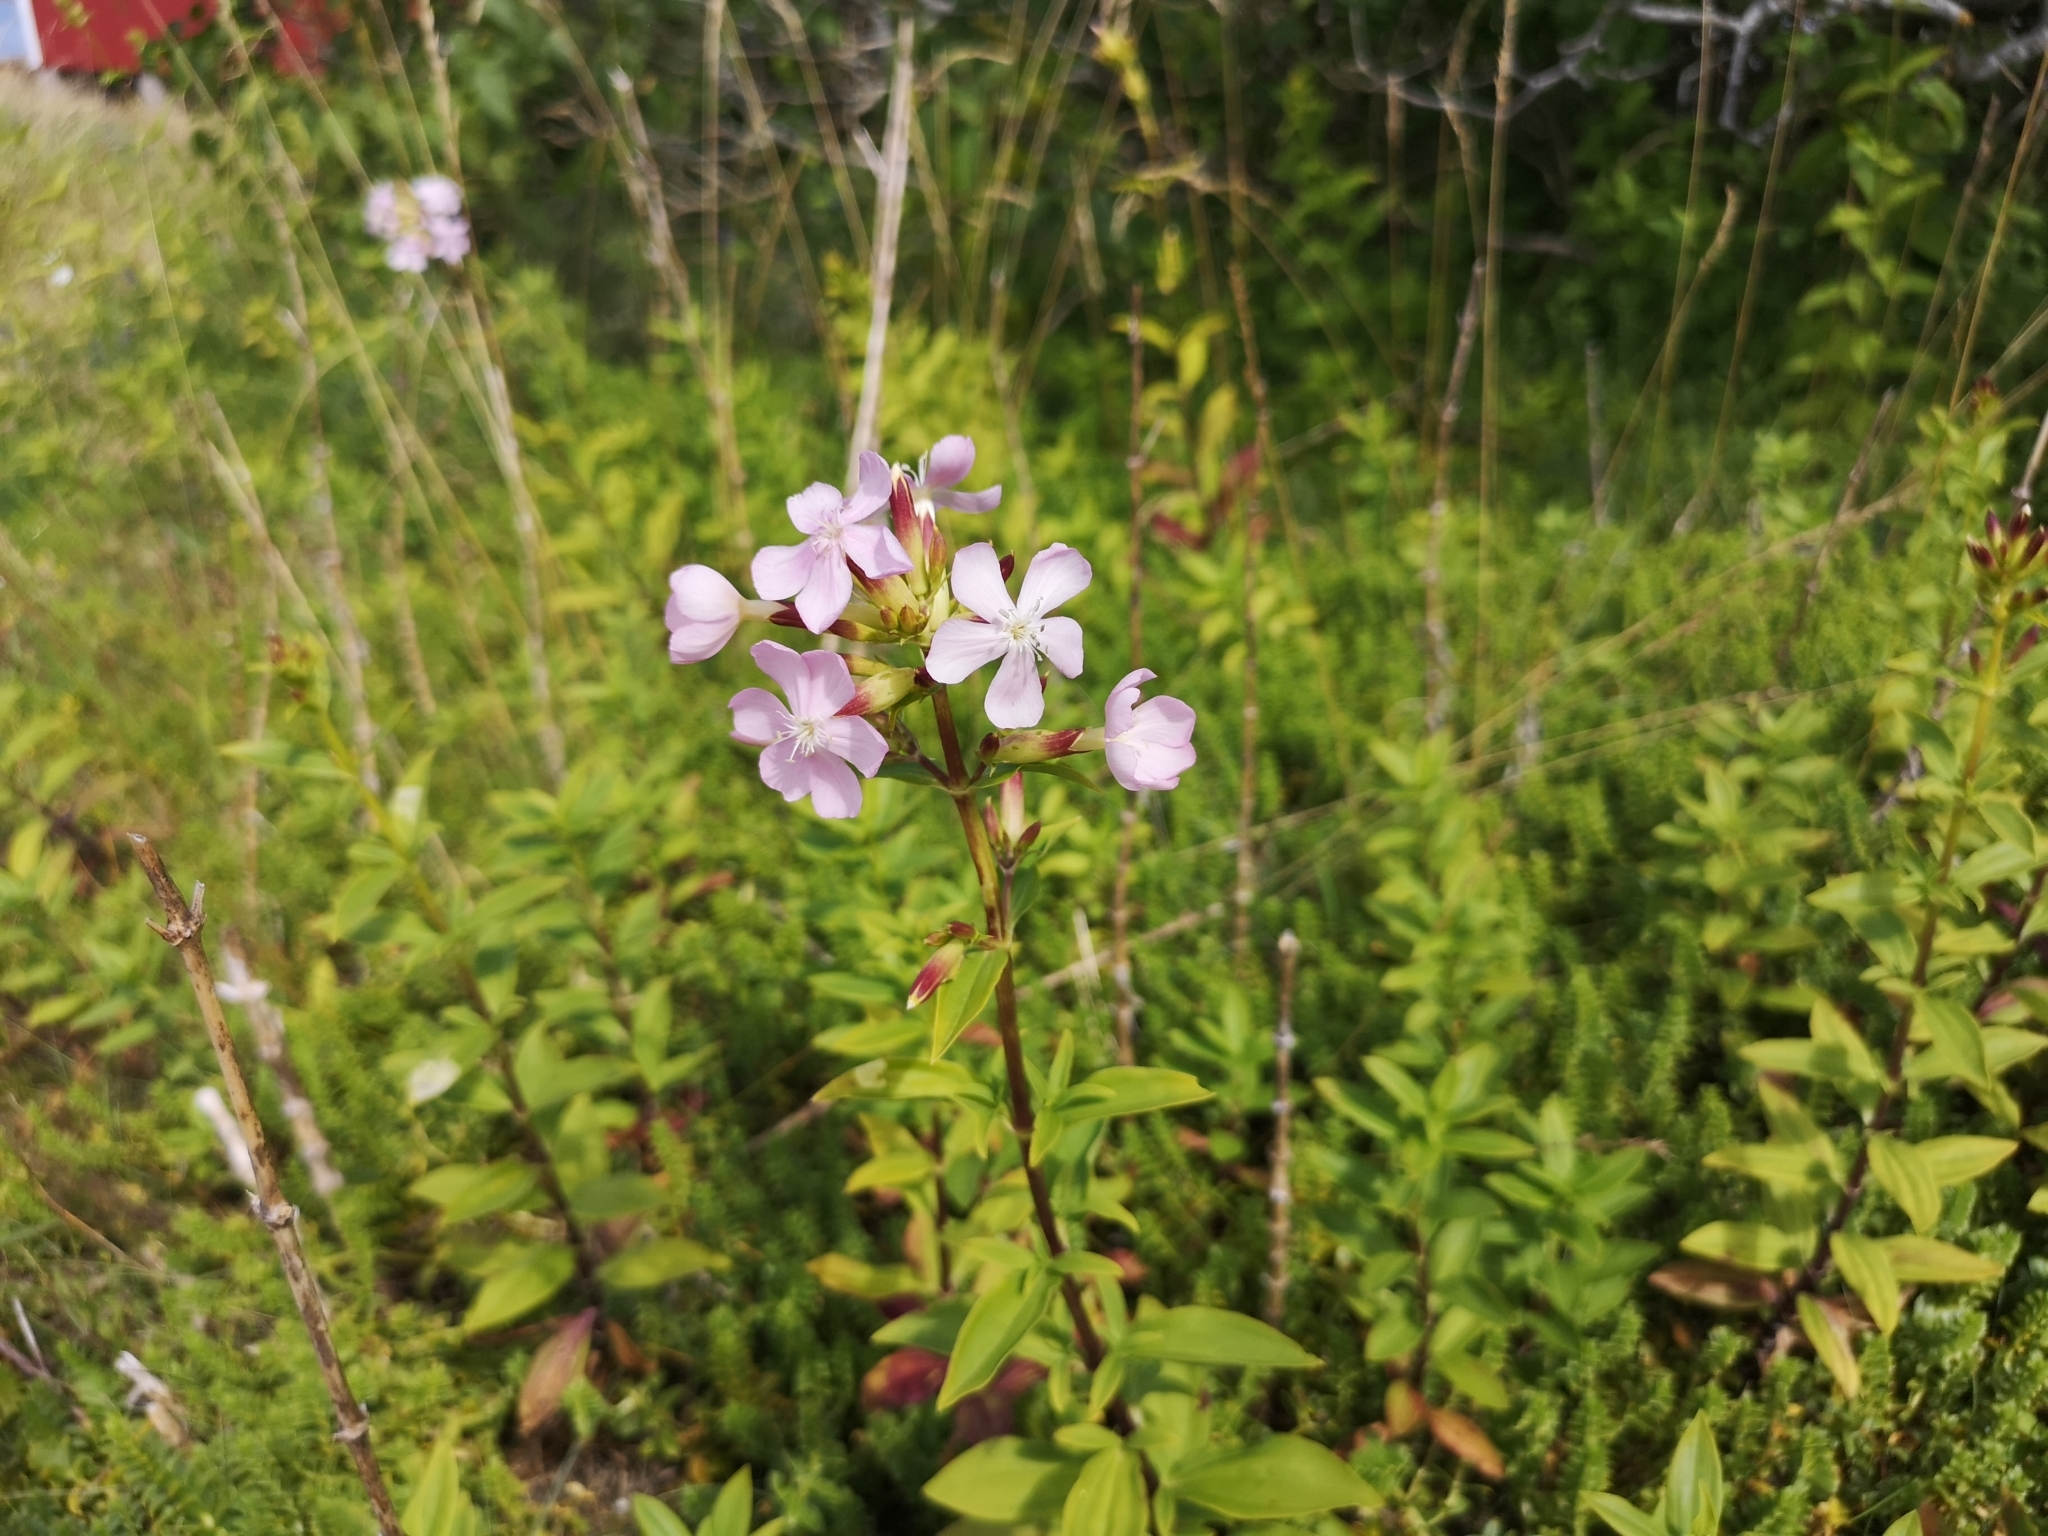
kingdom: Plantae
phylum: Tracheophyta
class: Magnoliopsida
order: Caryophyllales
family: Caryophyllaceae
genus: Saponaria
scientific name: Saponaria officinalis
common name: Soapwort
